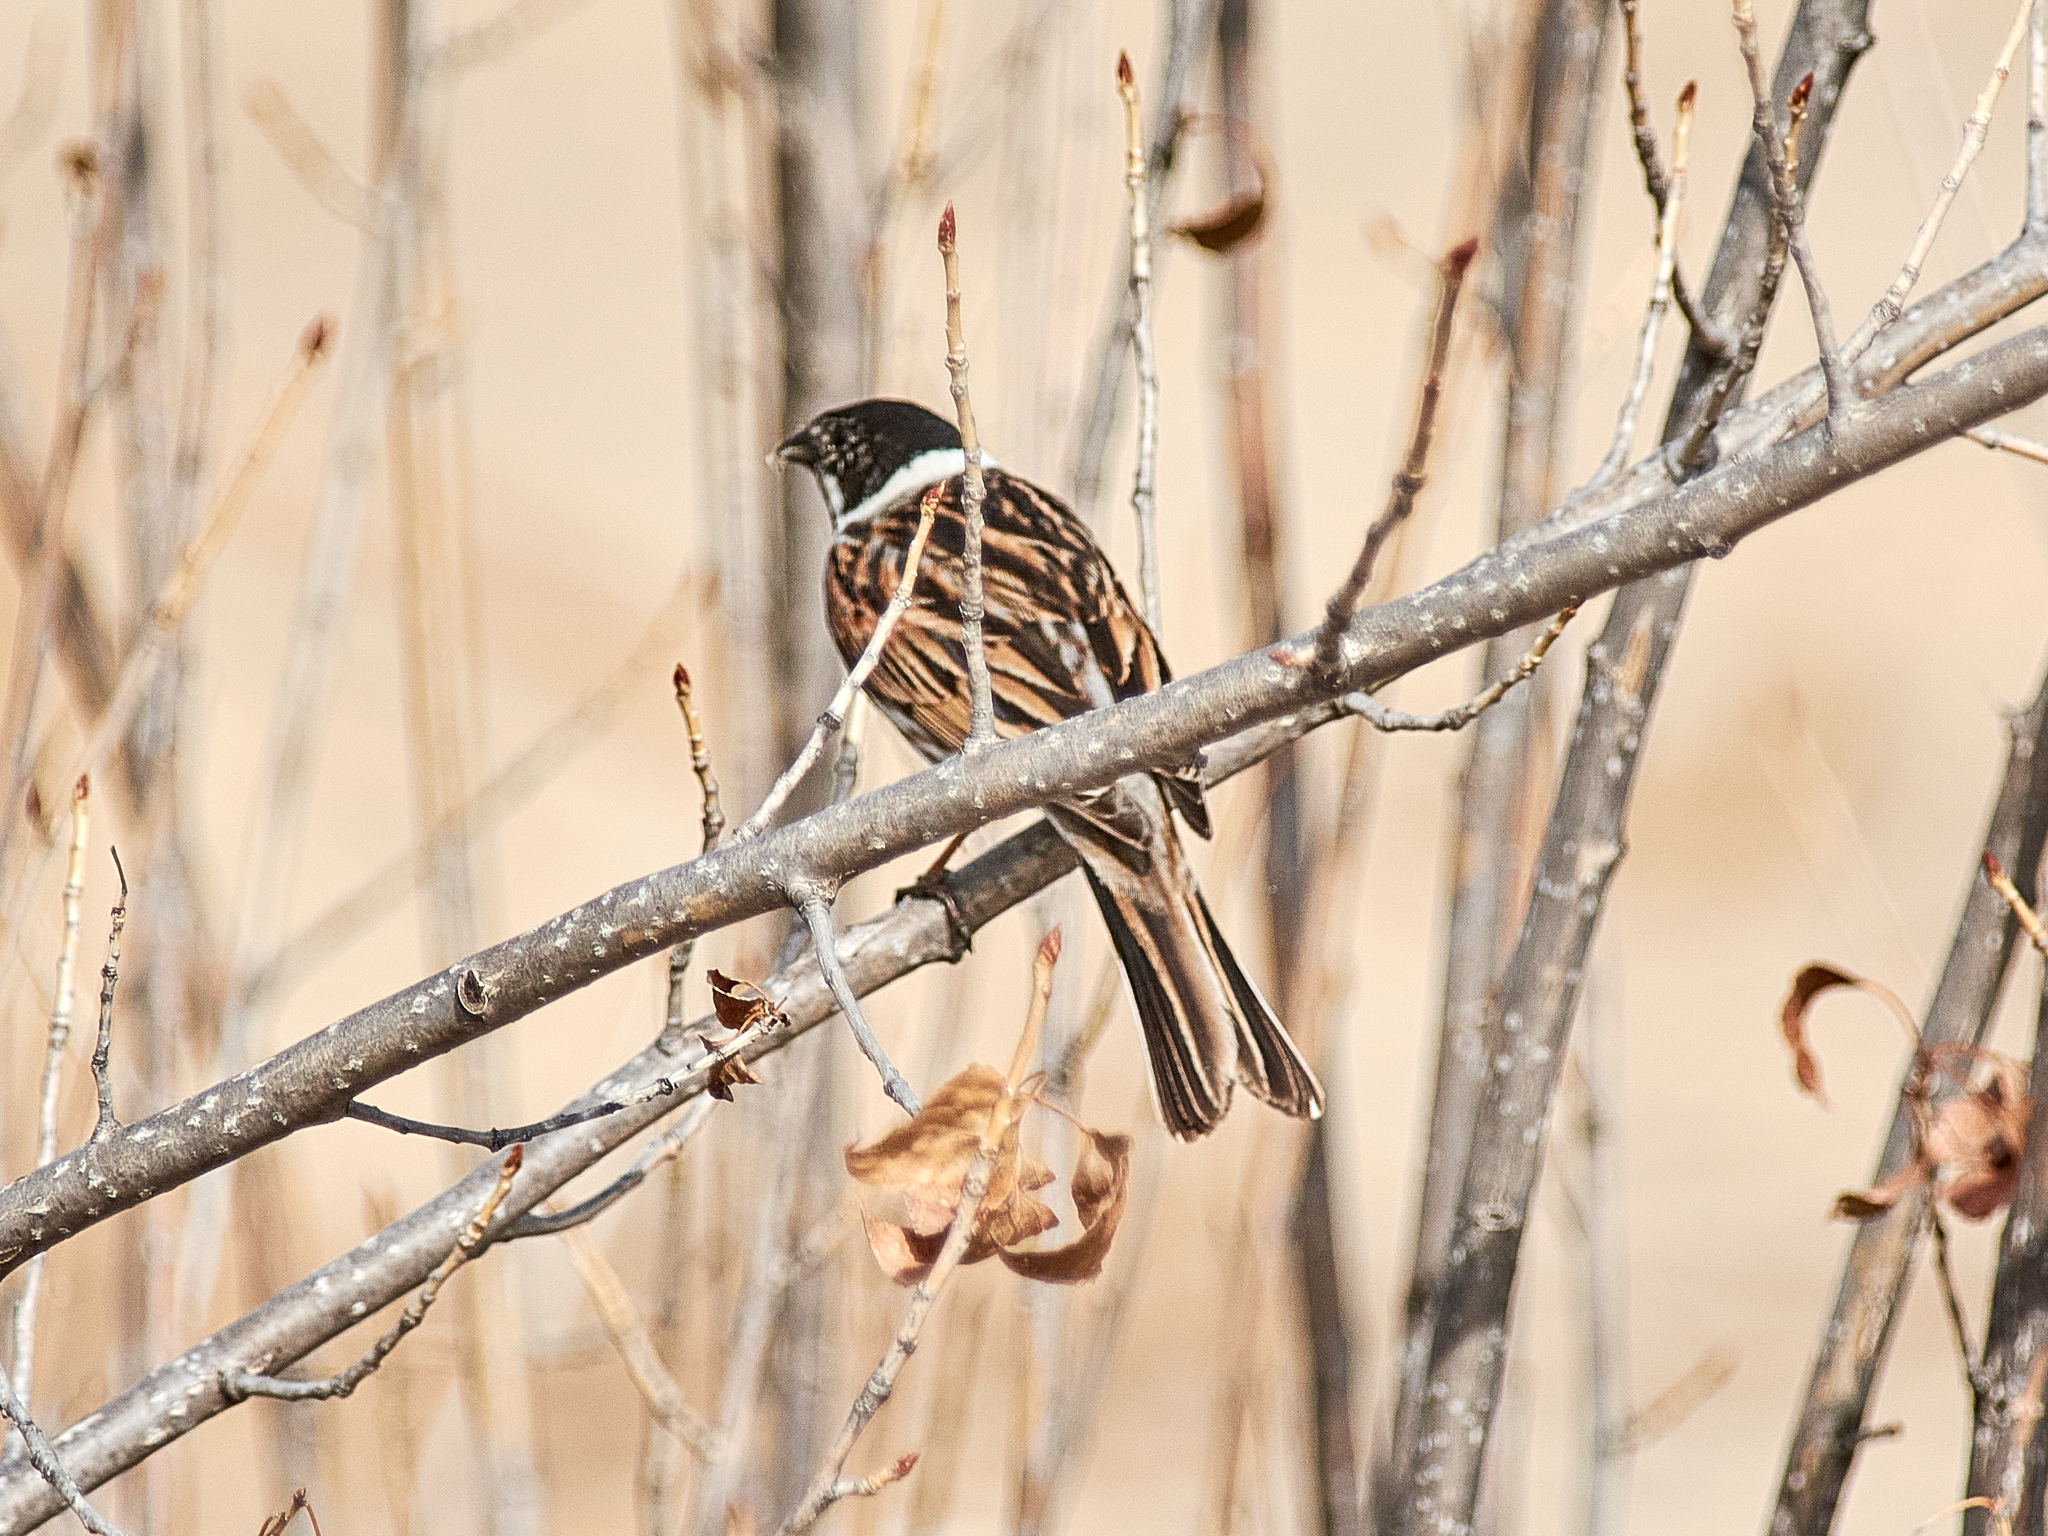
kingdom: Animalia
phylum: Chordata
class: Aves
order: Passeriformes
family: Emberizidae
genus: Emberiza
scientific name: Emberiza schoeniclus
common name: Reed bunting
